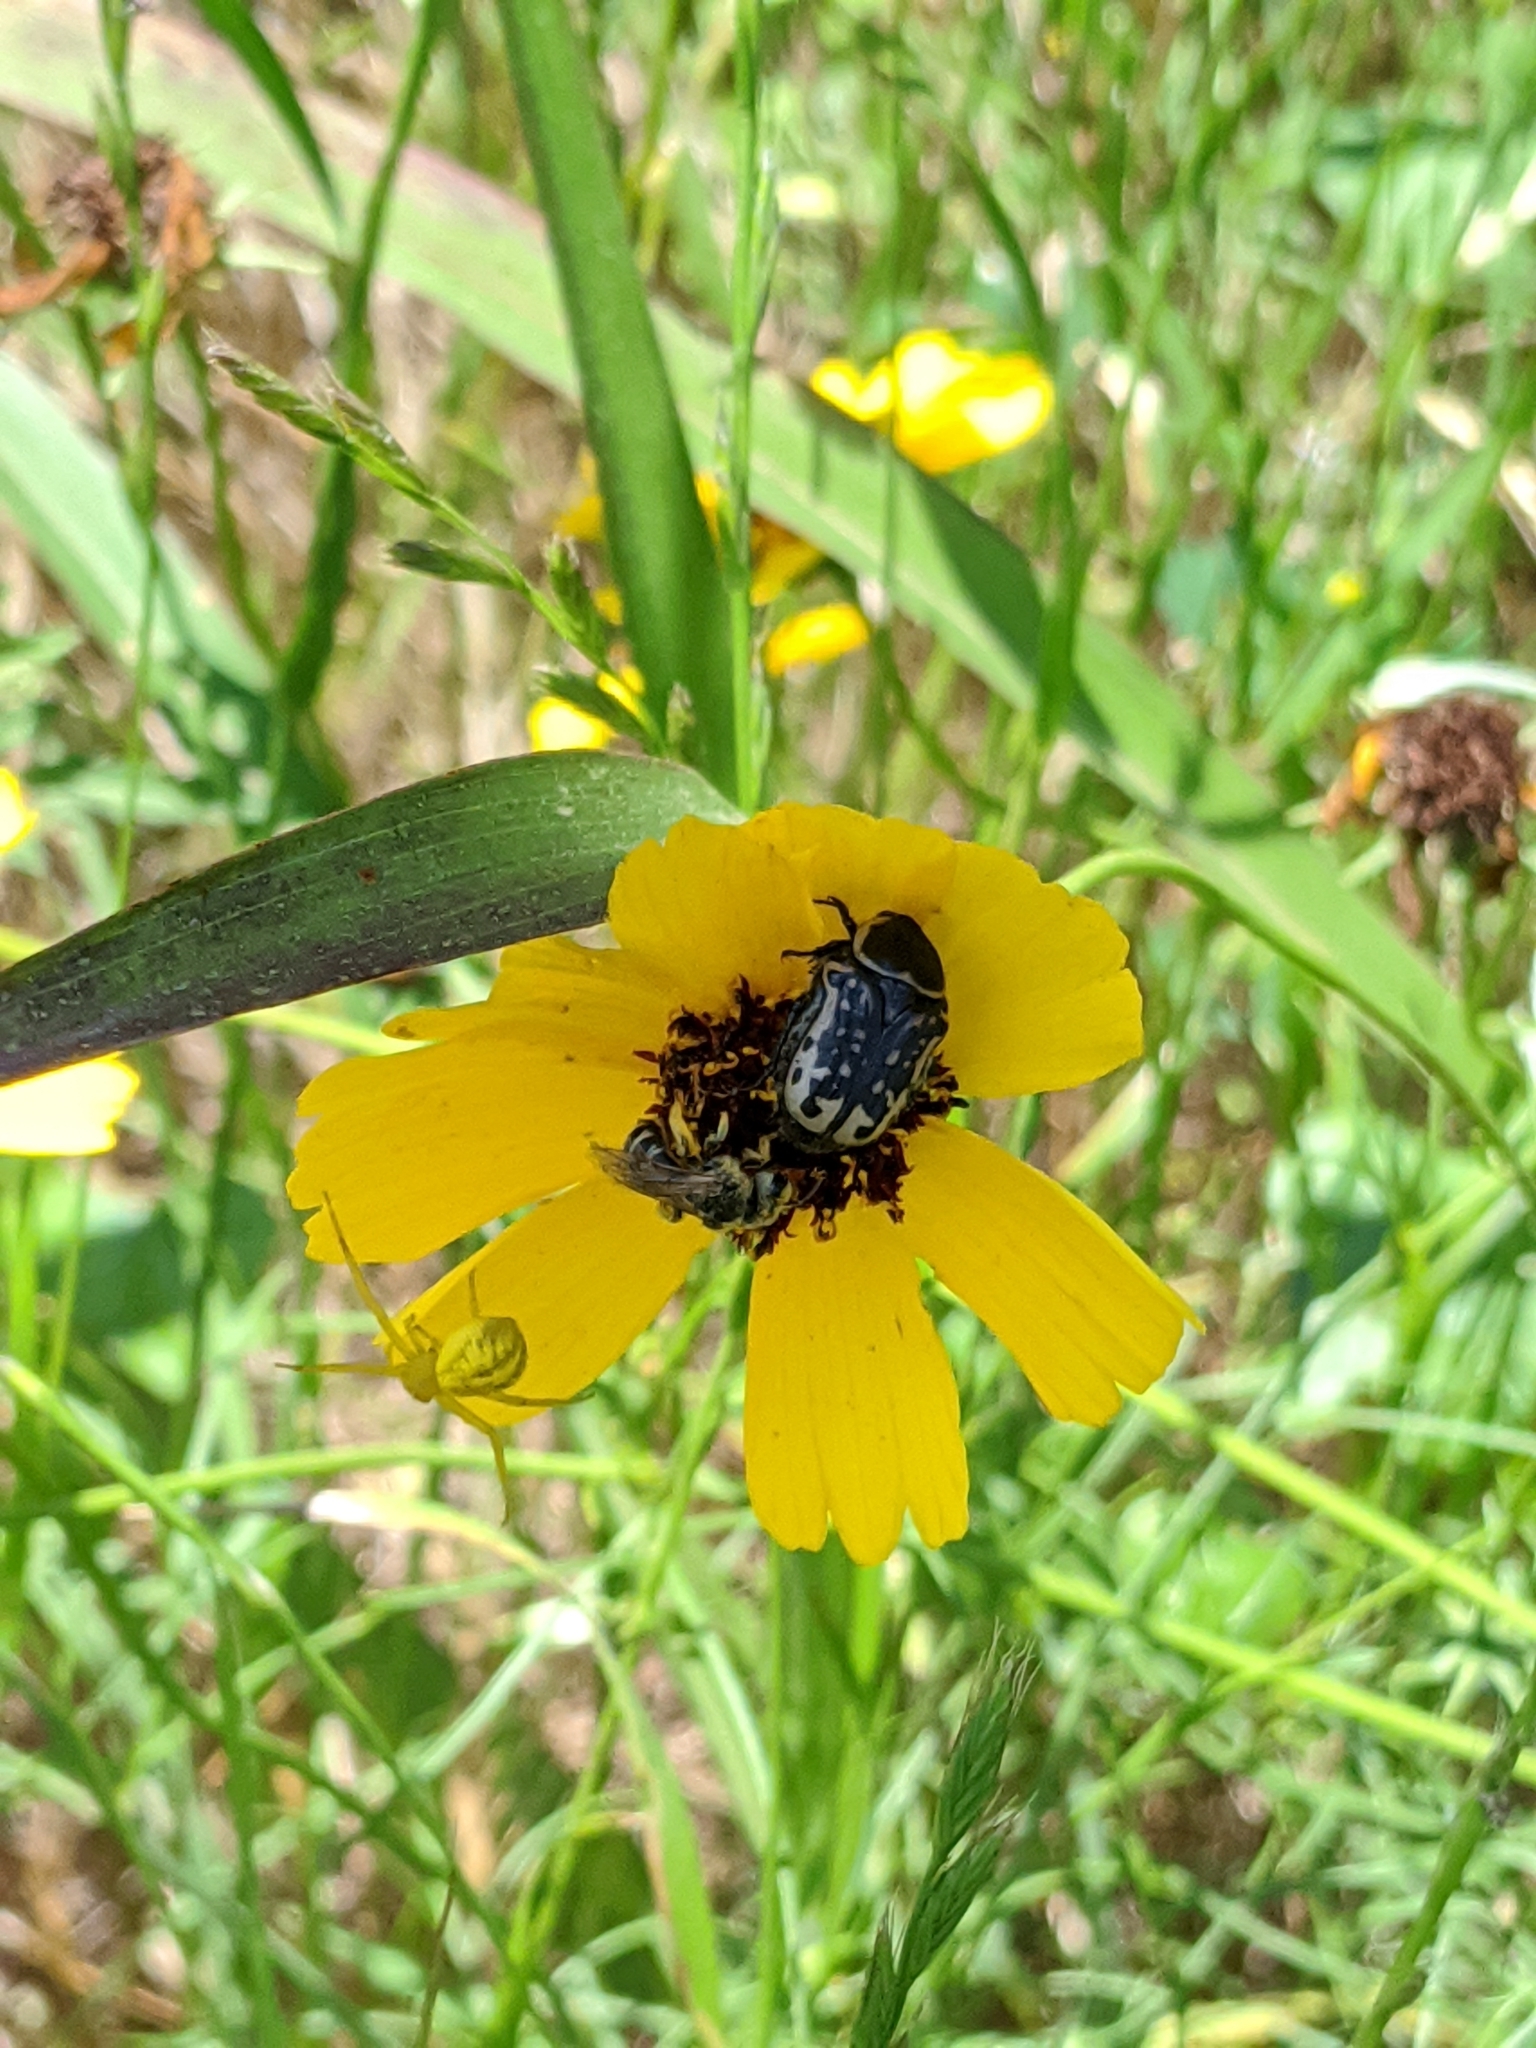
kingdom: Animalia
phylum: Arthropoda
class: Insecta
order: Coleoptera
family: Scarabaeidae
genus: Euphoria
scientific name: Euphoria kernii
